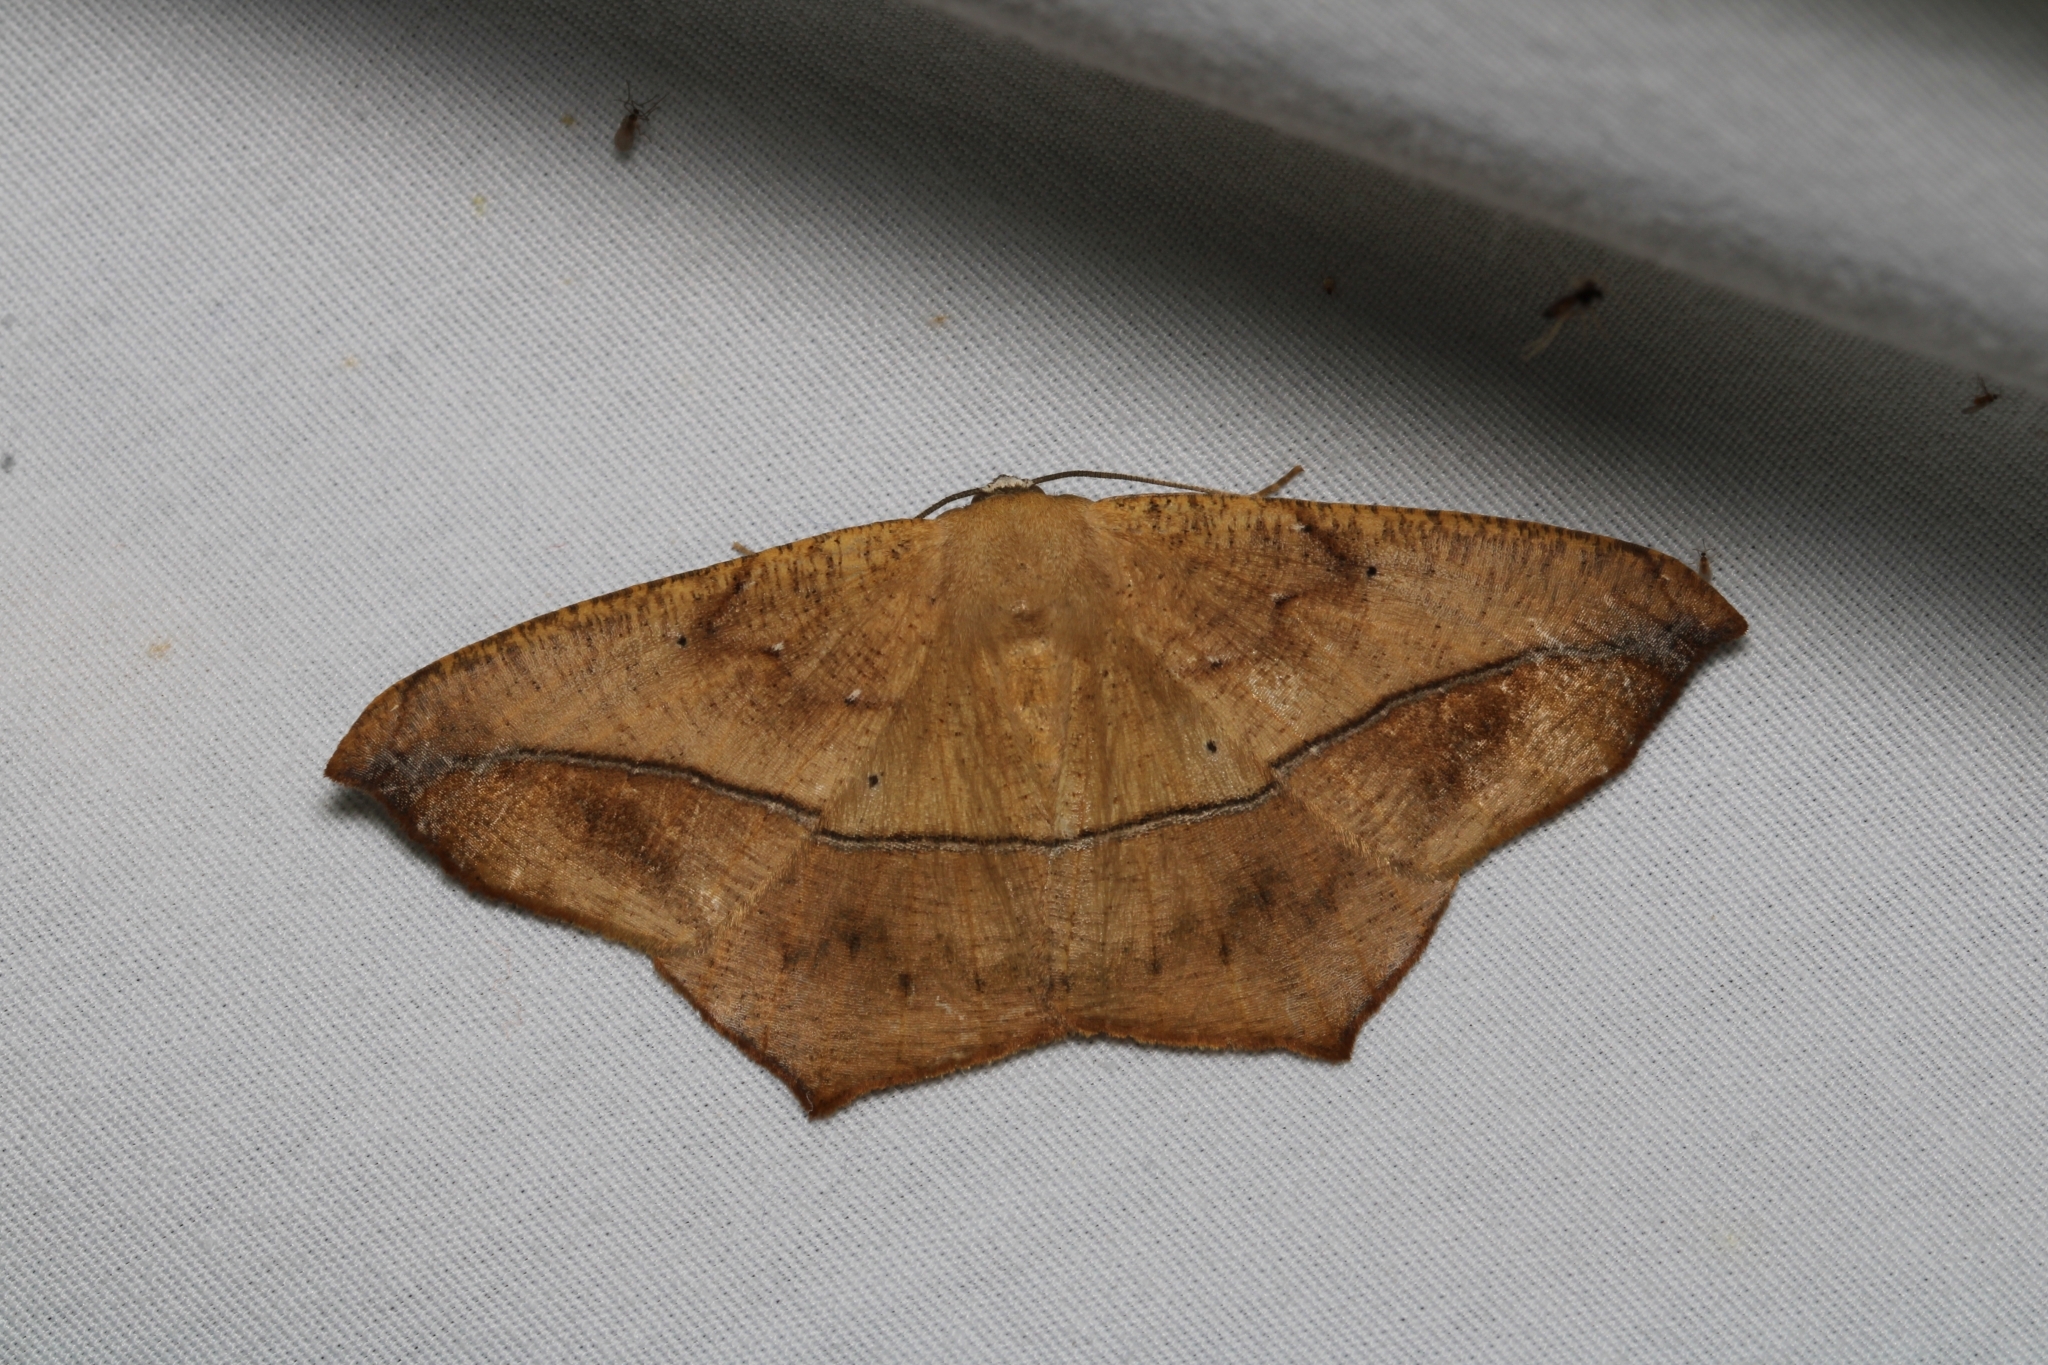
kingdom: Animalia
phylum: Arthropoda
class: Insecta
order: Lepidoptera
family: Geometridae
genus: Prochoerodes
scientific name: Prochoerodes lineola
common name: Large maple spanworm
